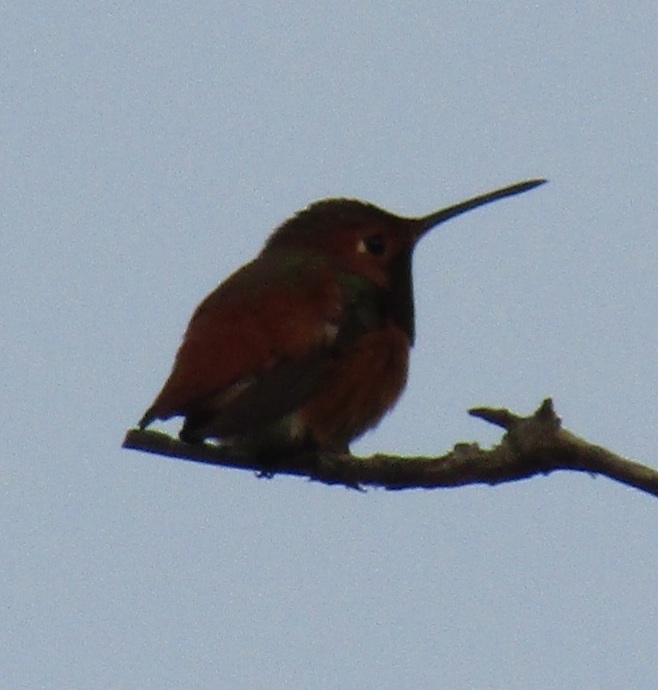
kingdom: Animalia
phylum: Chordata
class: Aves
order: Apodiformes
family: Trochilidae
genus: Selasphorus
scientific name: Selasphorus sasin
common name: Allen's hummingbird
